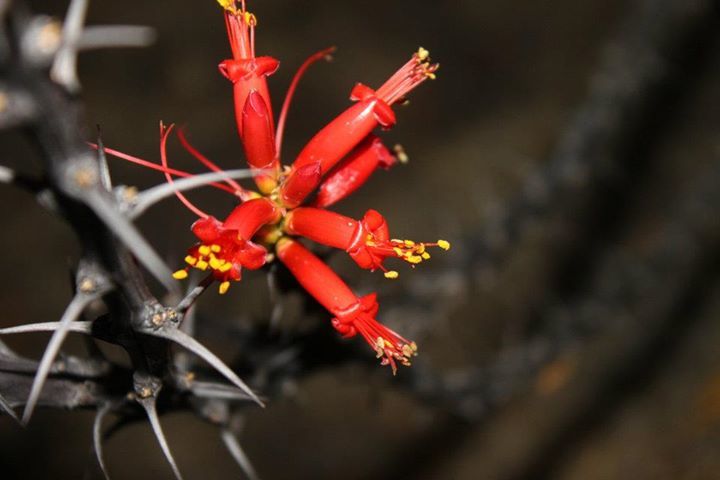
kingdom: Plantae
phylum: Tracheophyta
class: Magnoliopsida
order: Ericales
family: Fouquieriaceae
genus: Fouquieria
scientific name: Fouquieria formosa
